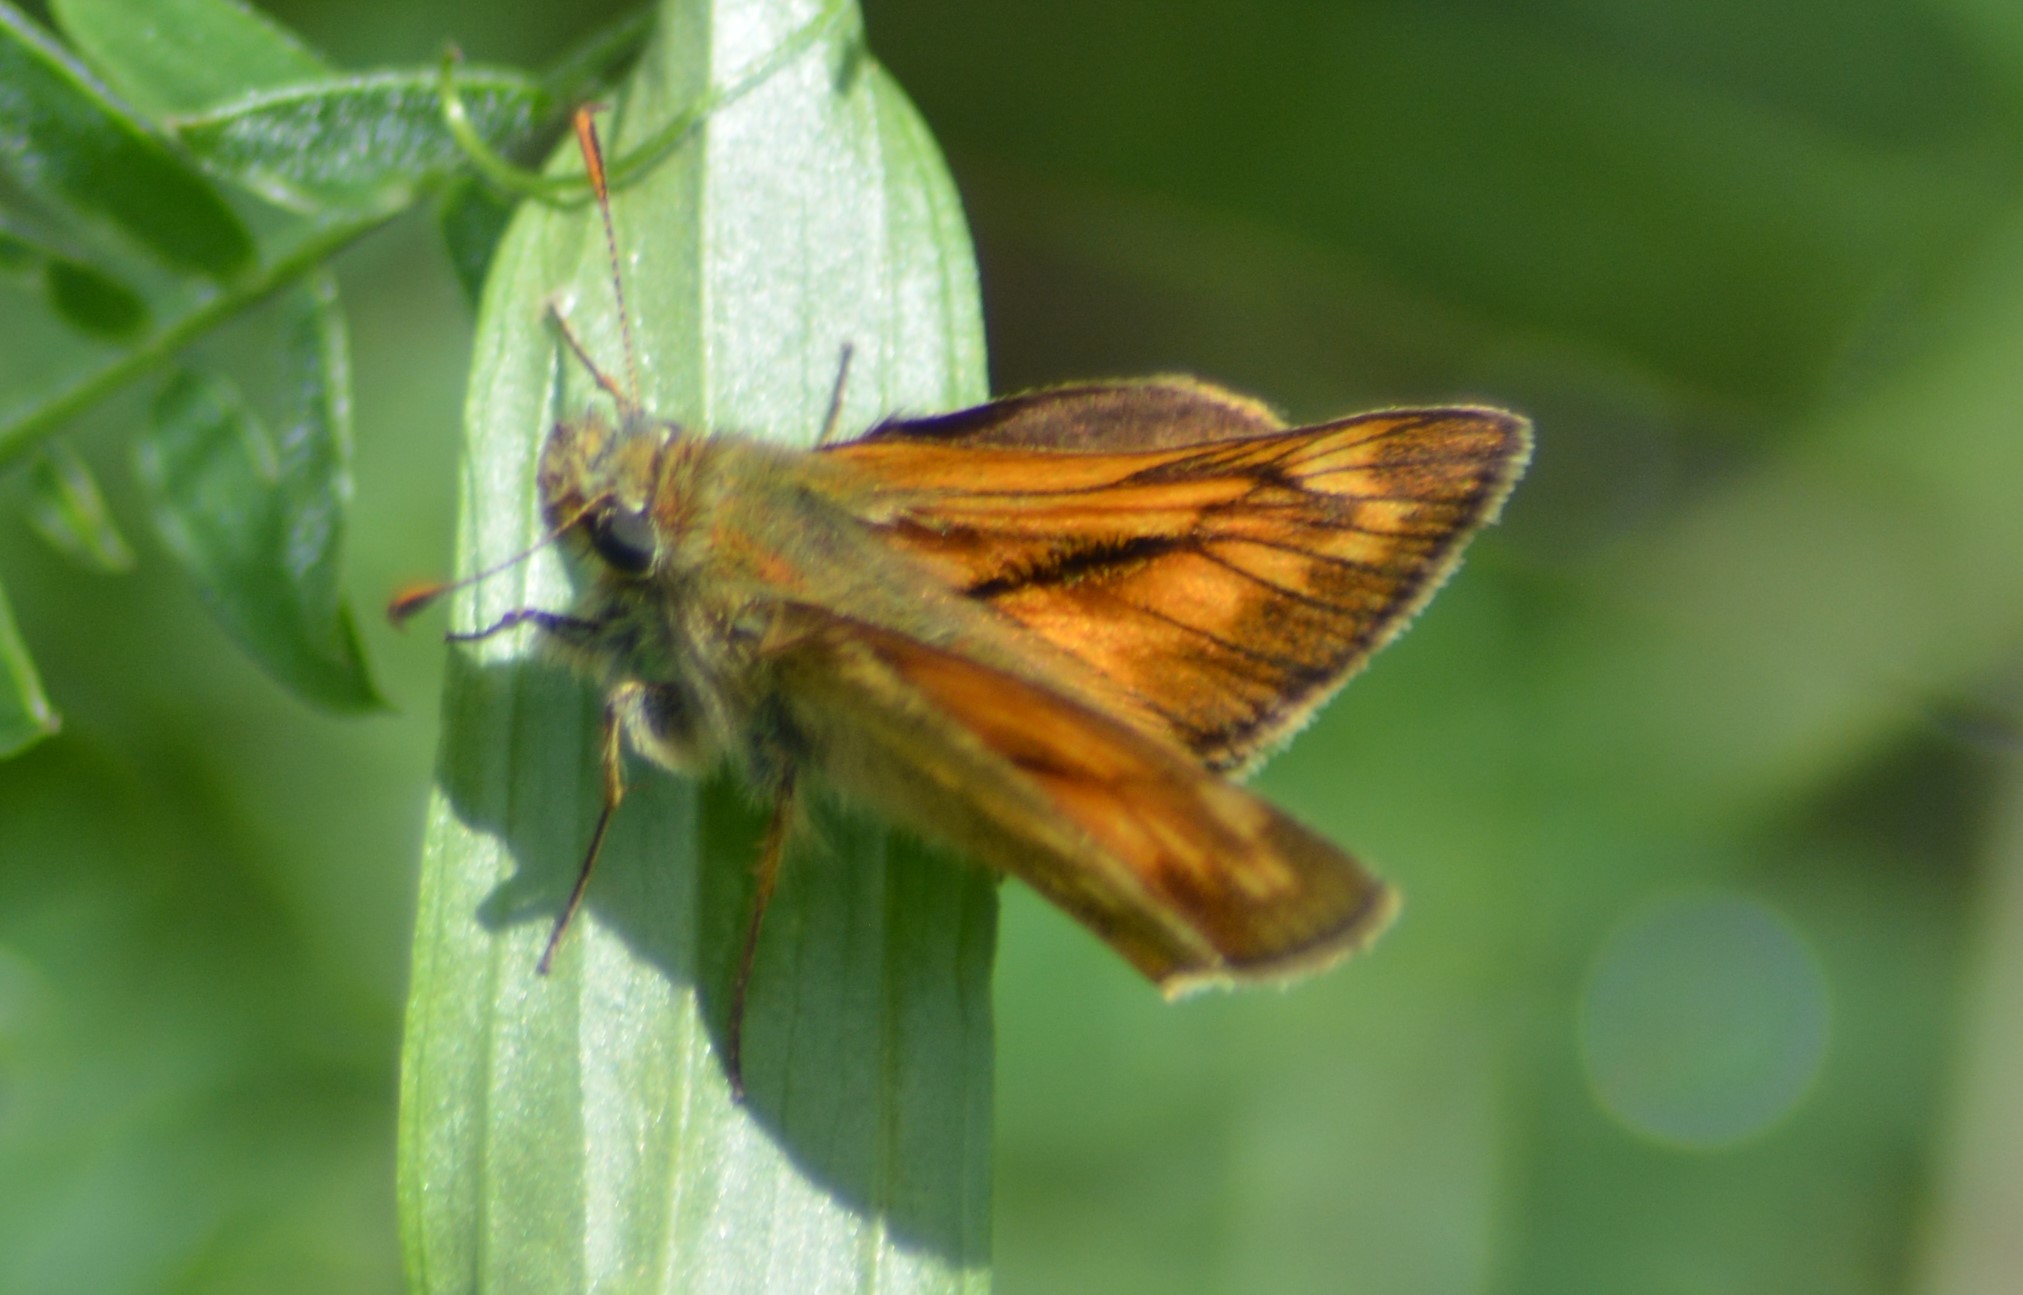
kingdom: Animalia
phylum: Arthropoda
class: Insecta
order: Lepidoptera
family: Hesperiidae
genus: Ochlodes
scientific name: Ochlodes venata
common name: Large skipper
